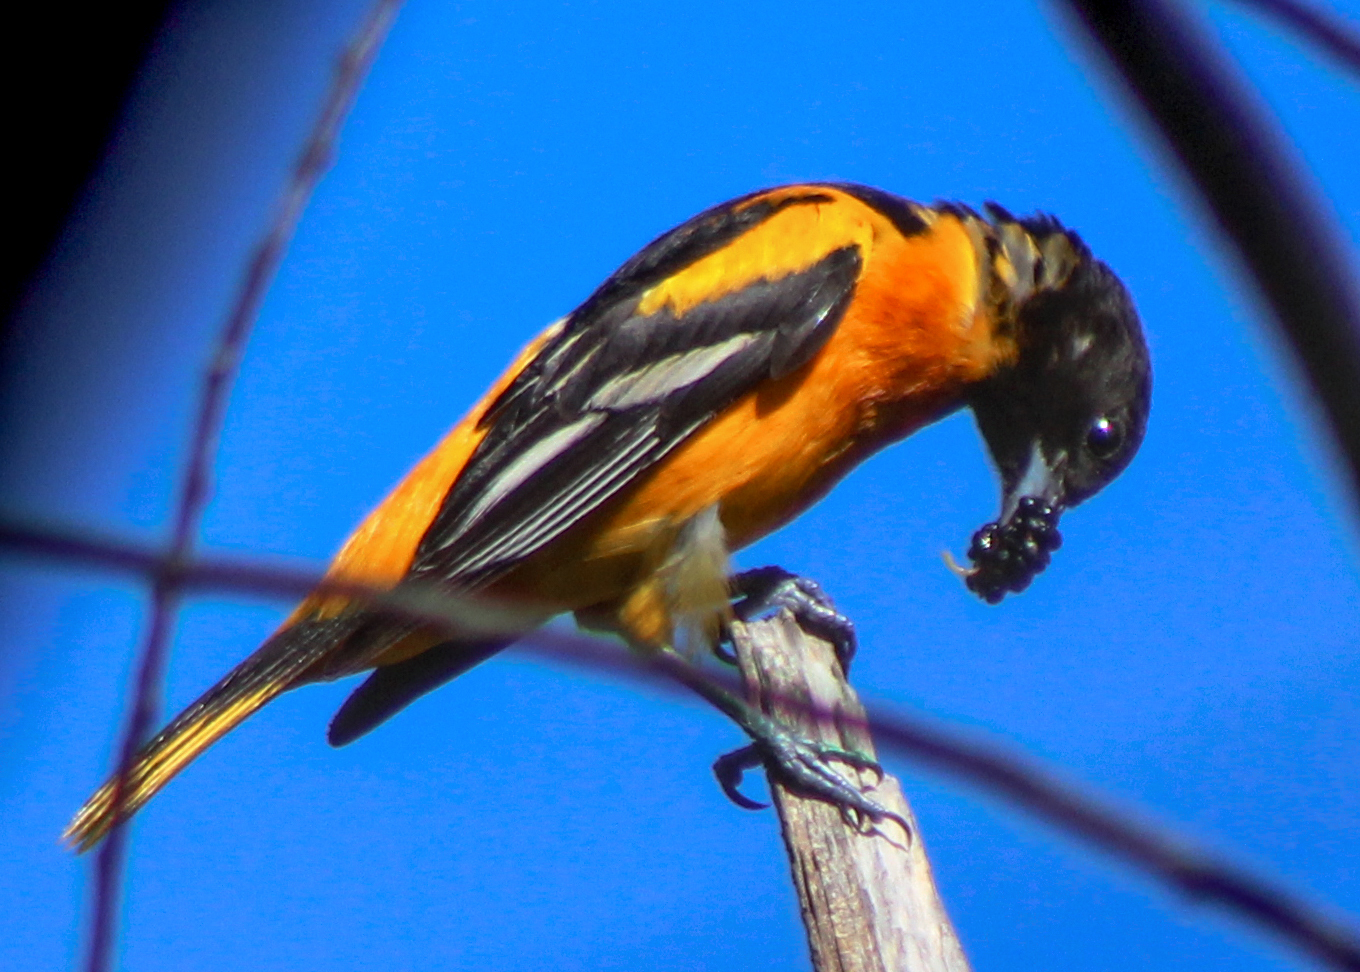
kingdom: Animalia
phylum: Chordata
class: Aves
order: Passeriformes
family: Icteridae
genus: Icterus
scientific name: Icterus galbula
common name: Baltimore oriole
